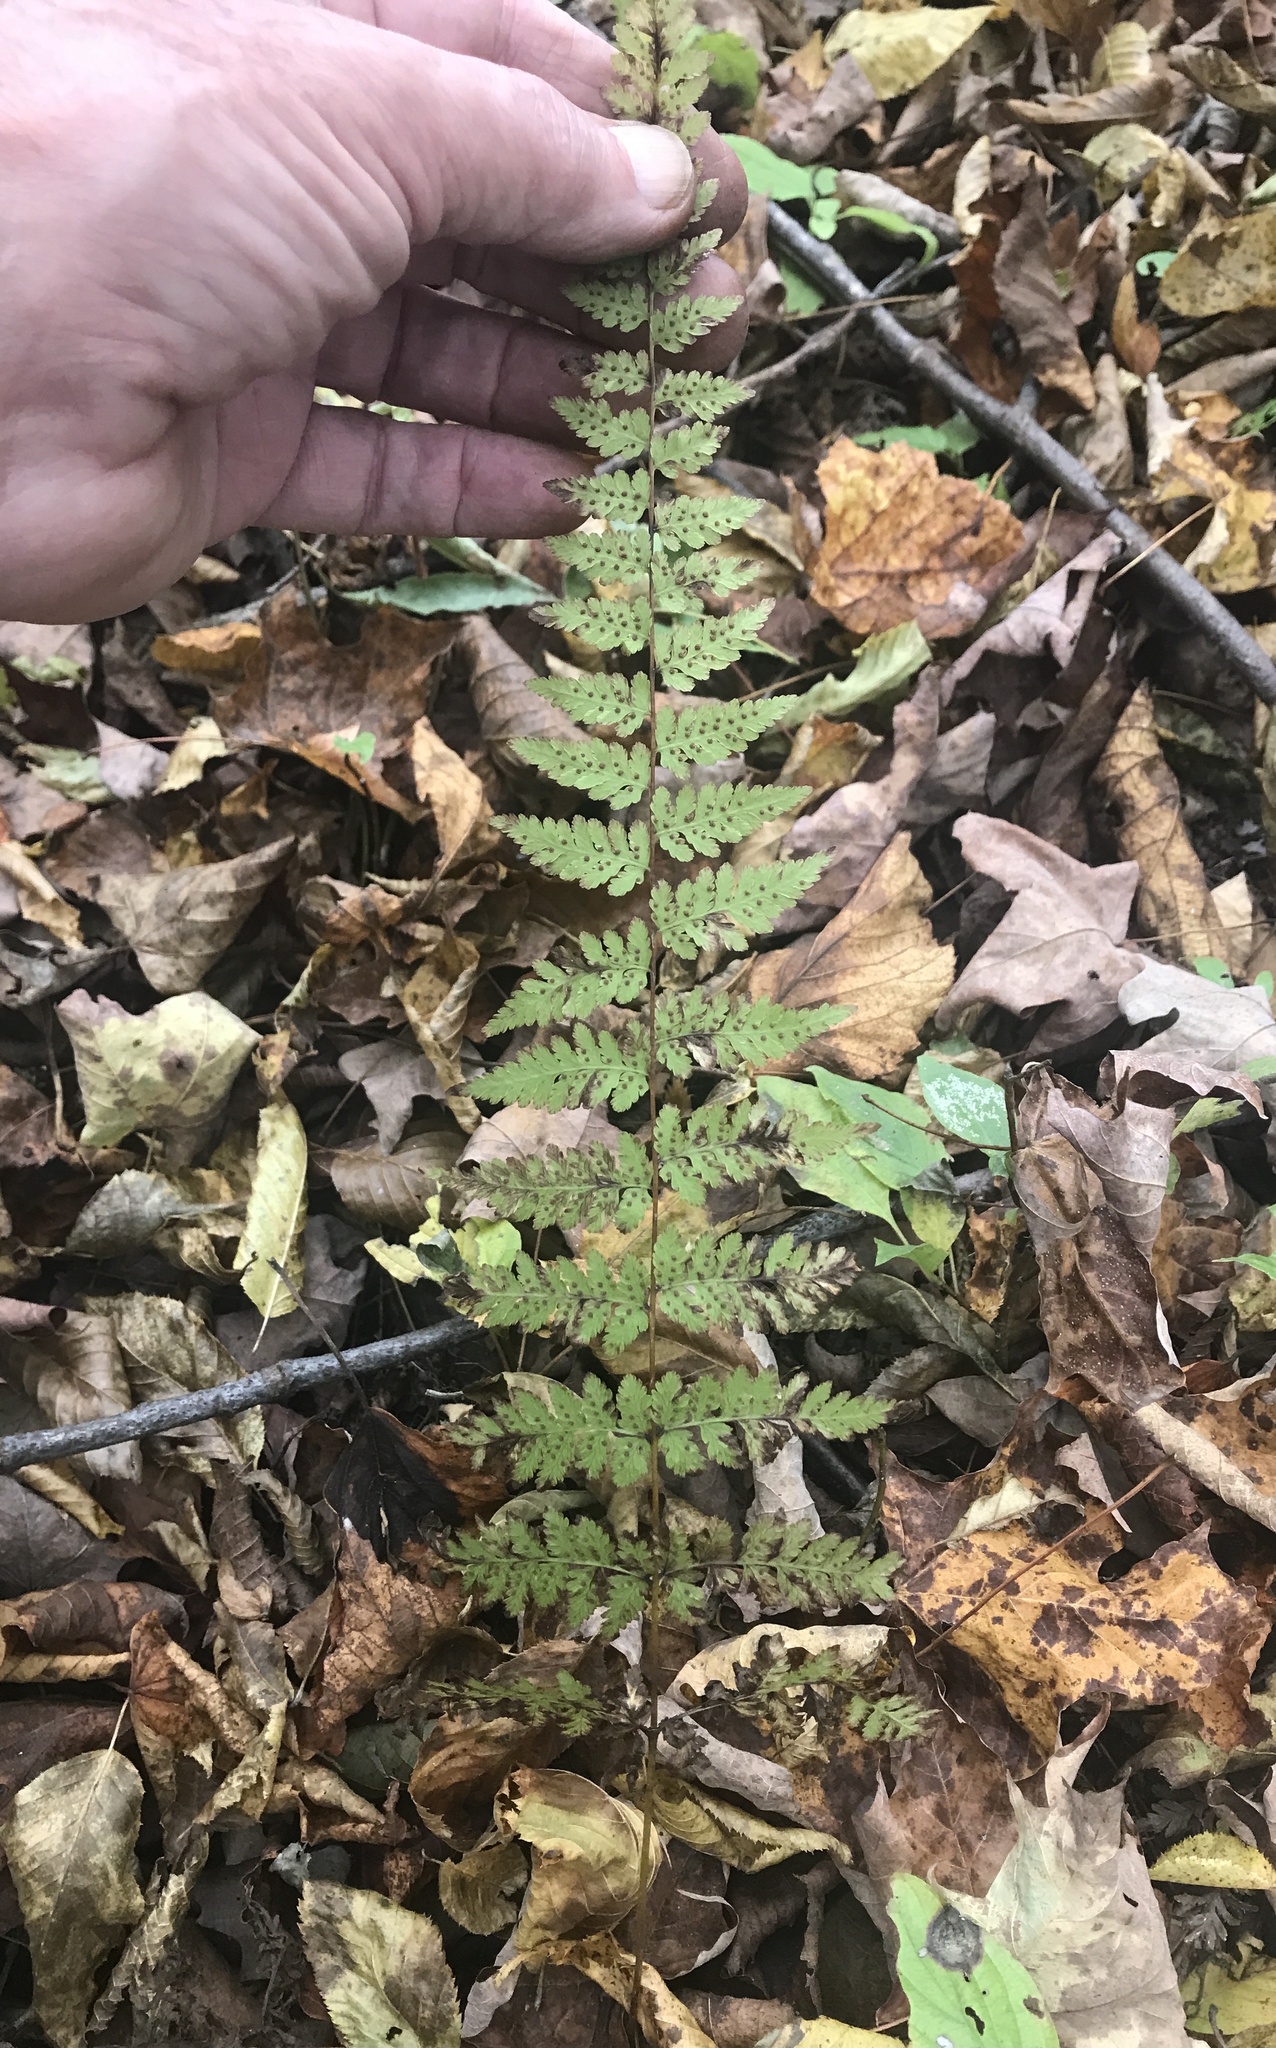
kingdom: Plantae
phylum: Tracheophyta
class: Polypodiopsida
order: Polypodiales
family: Cystopteridaceae
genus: Cystopteris
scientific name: Cystopteris bulbifera
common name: Bulblet bladder fern
